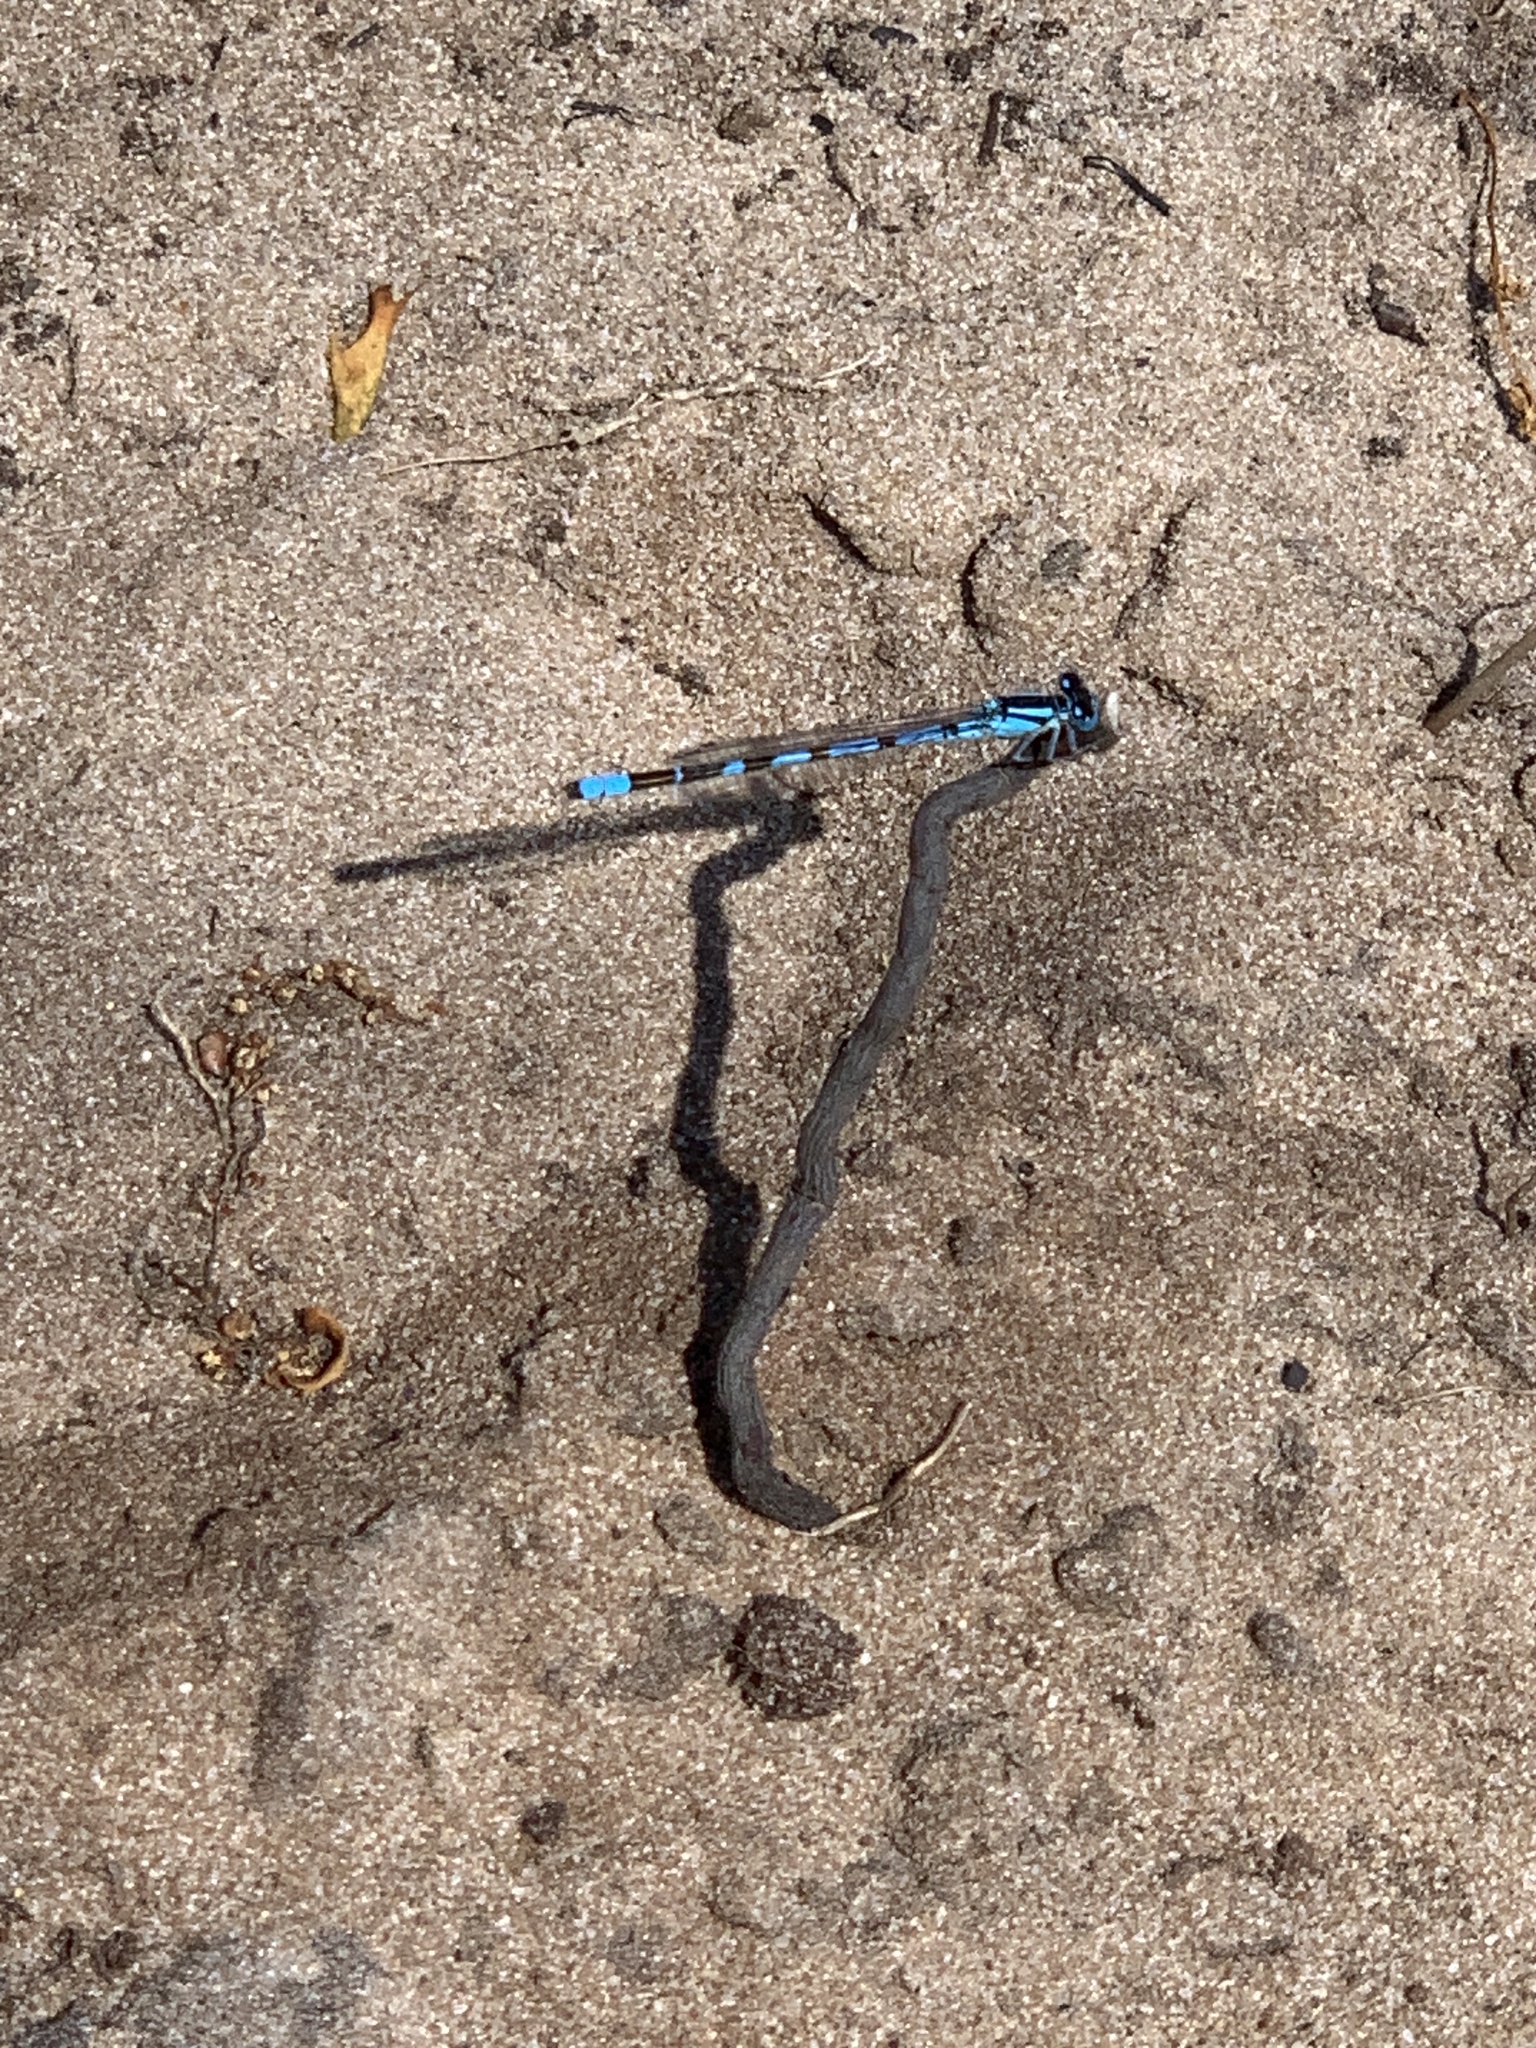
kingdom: Animalia
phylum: Arthropoda
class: Insecta
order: Odonata
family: Coenagrionidae
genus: Enallagma
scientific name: Enallagma cyathigerum
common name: Common blue damselfly
